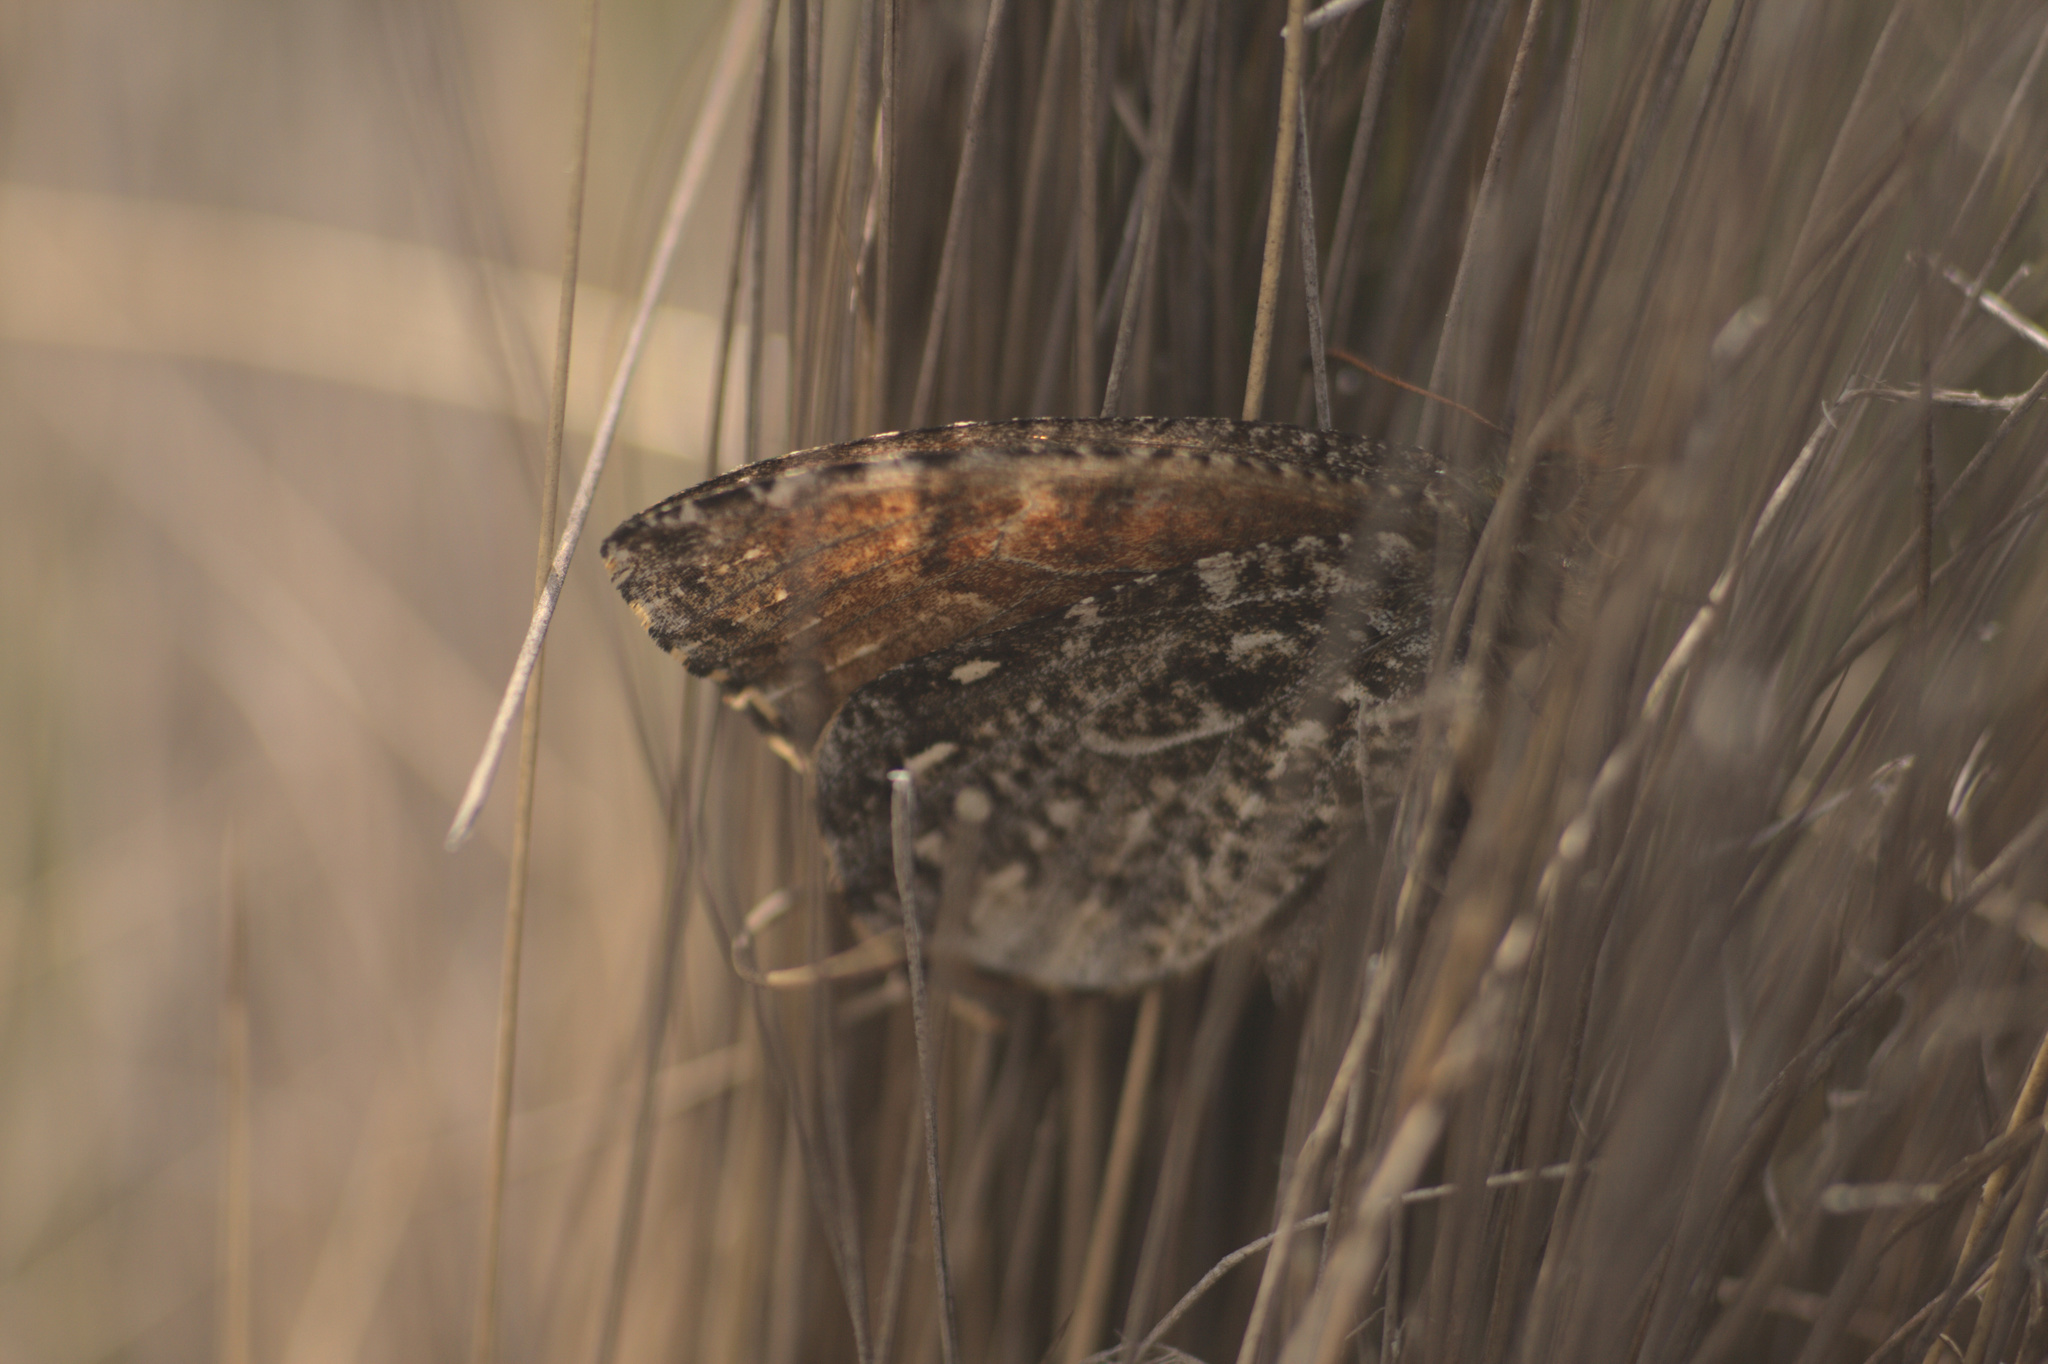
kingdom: Animalia
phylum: Arthropoda
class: Insecta
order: Lepidoptera
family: Nymphalidae
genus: Altopedaliodes
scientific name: Altopedaliodes
